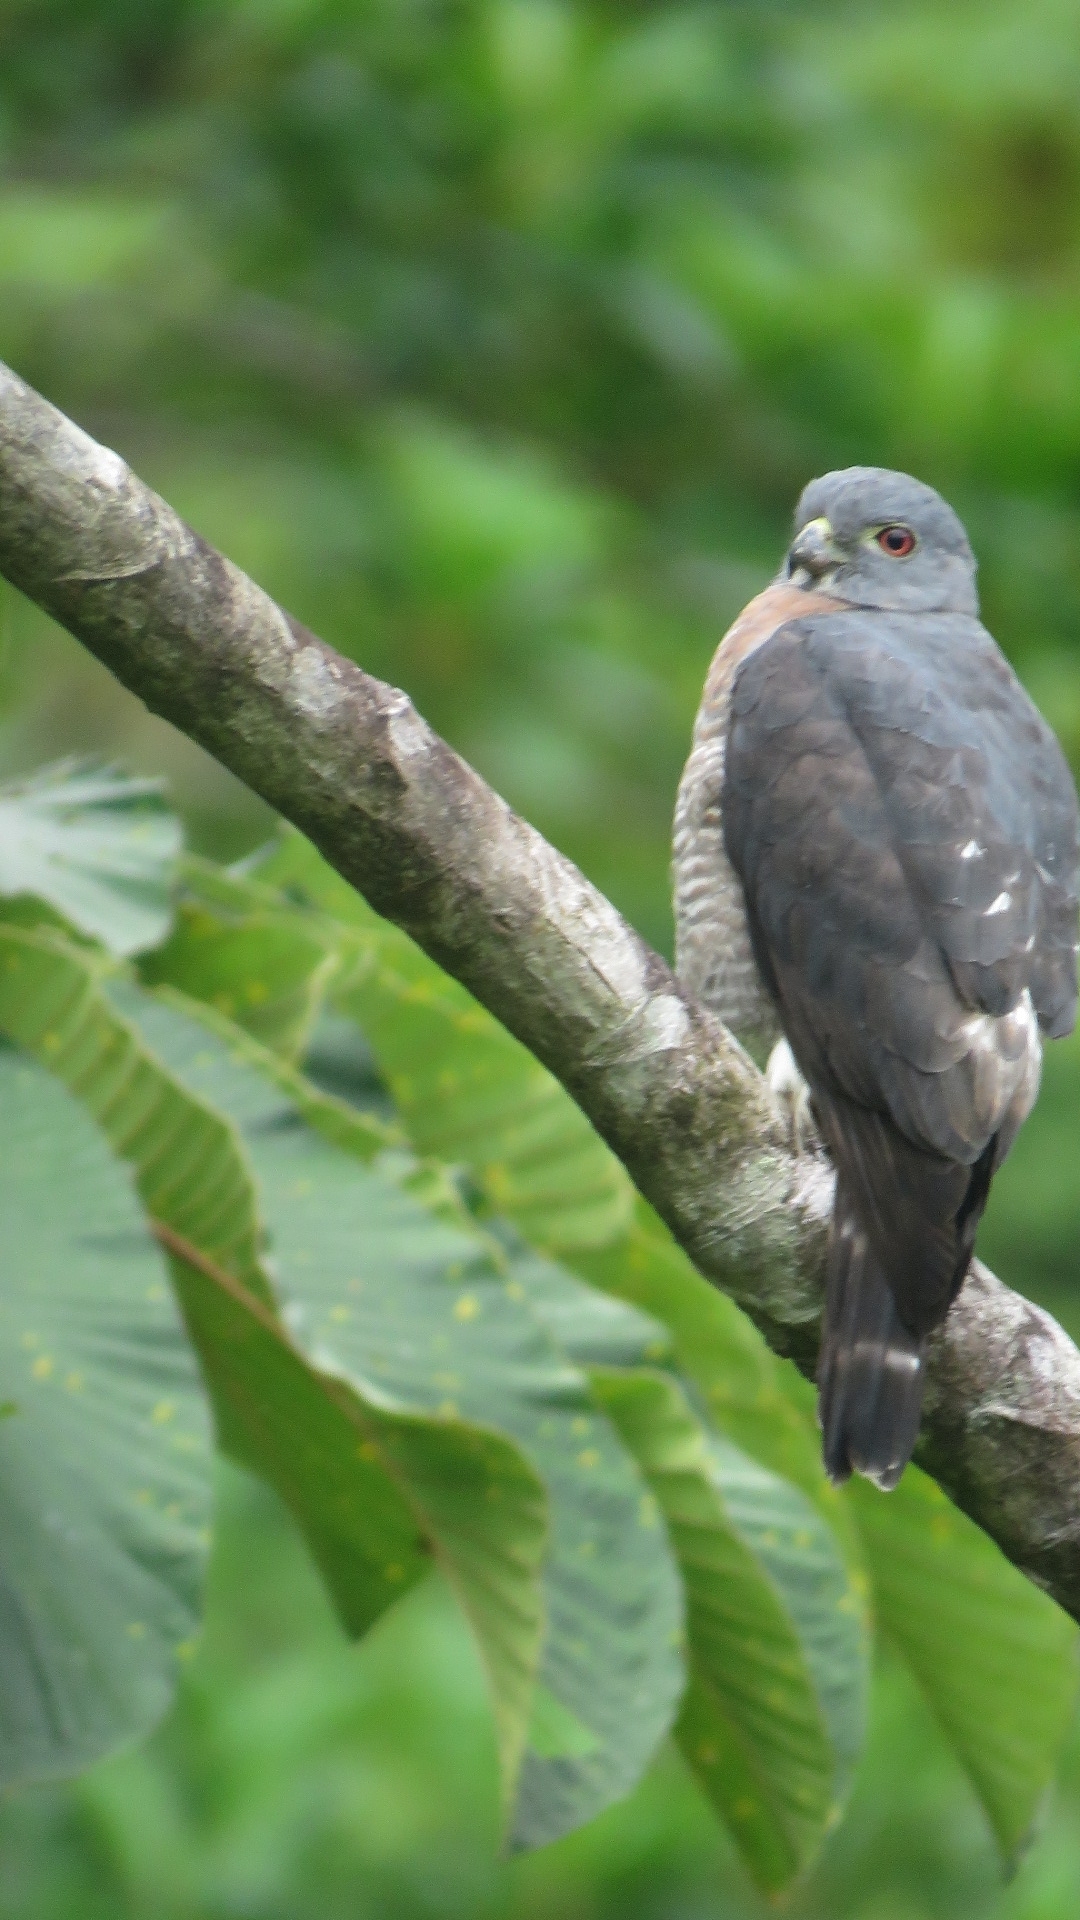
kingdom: Animalia
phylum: Chordata
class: Aves
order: Accipitriformes
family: Accipitridae
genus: Harpagus
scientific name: Harpagus bidentatus
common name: Double-toothed kite
